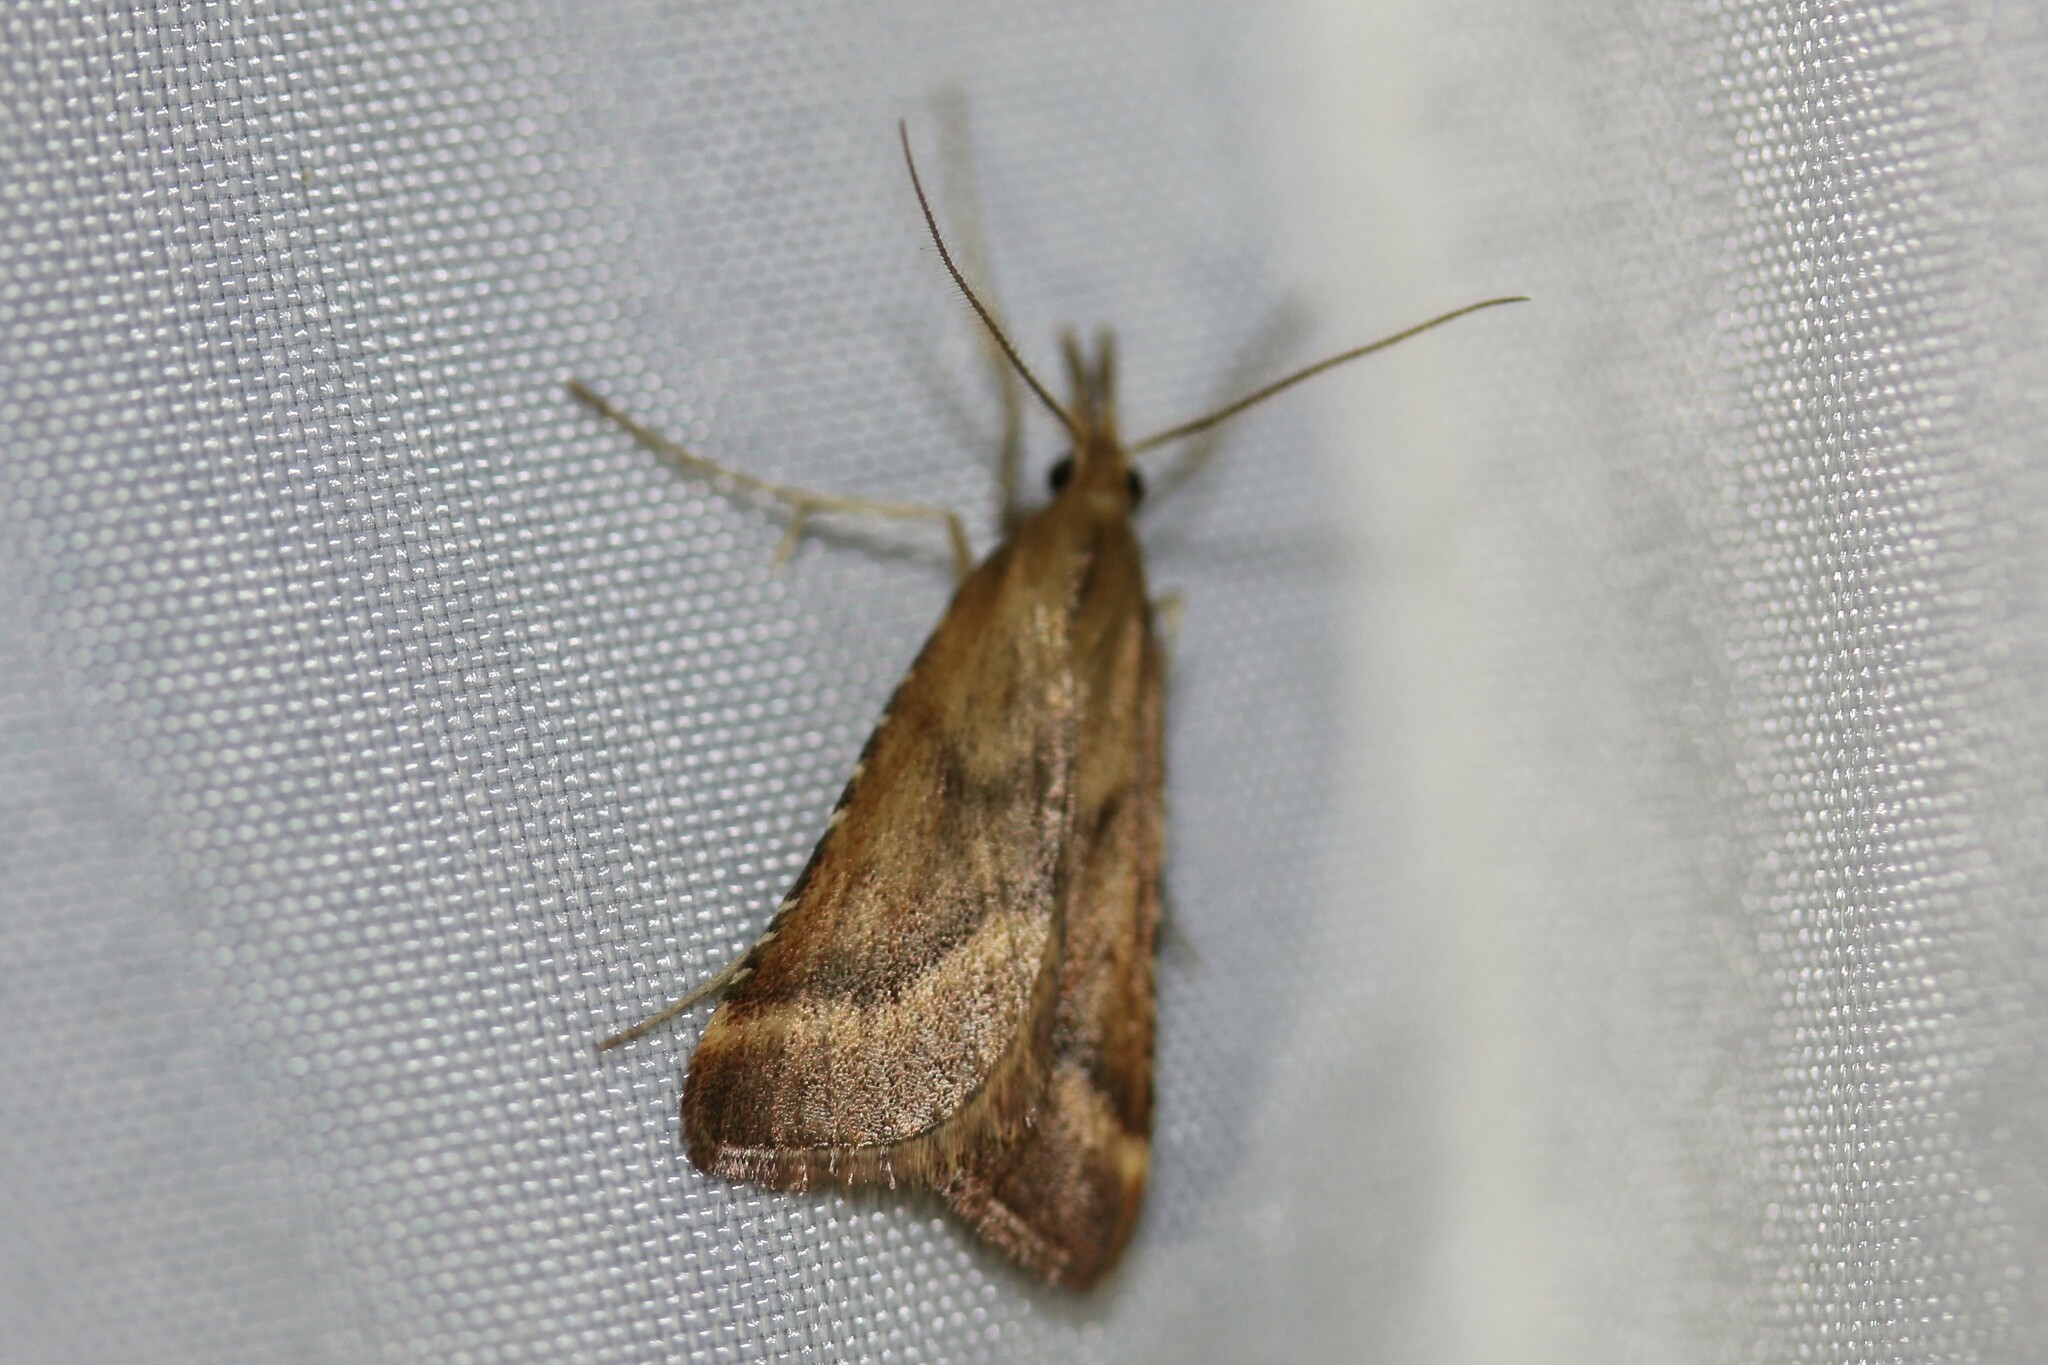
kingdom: Animalia
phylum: Arthropoda
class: Insecta
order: Lepidoptera
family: Pyralidae
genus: Synaphe
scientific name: Synaphe punctalis
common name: Long-legged tabby
